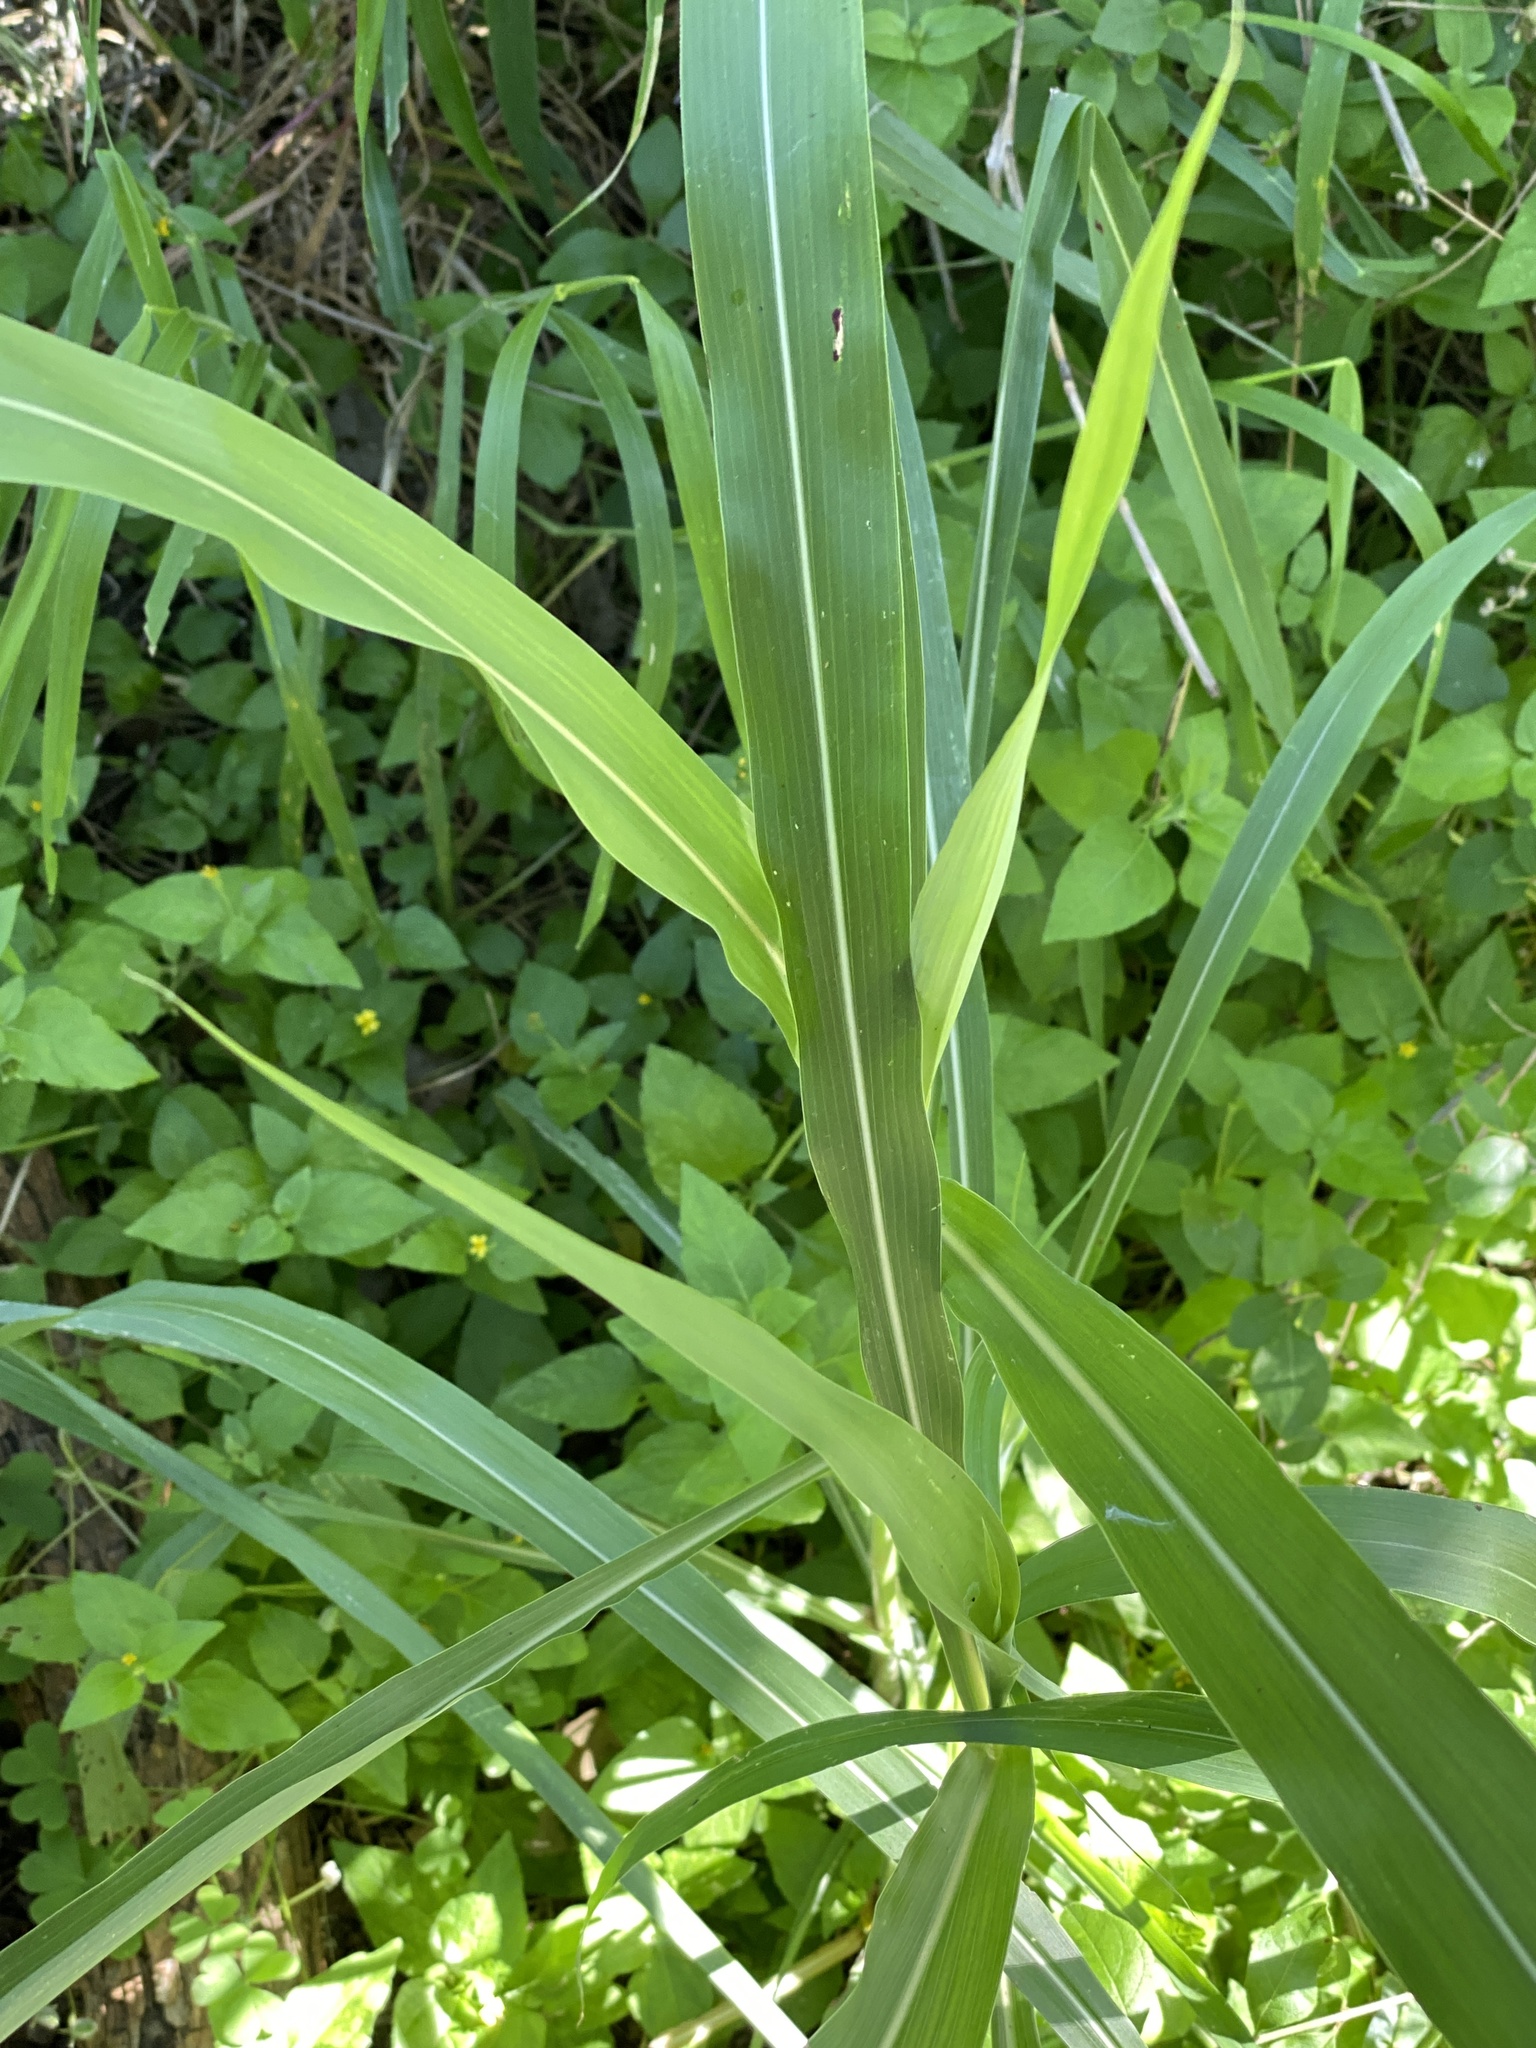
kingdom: Plantae
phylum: Tracheophyta
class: Liliopsida
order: Poales
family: Poaceae
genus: Sorghum
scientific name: Sorghum halepense
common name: Johnson-grass
